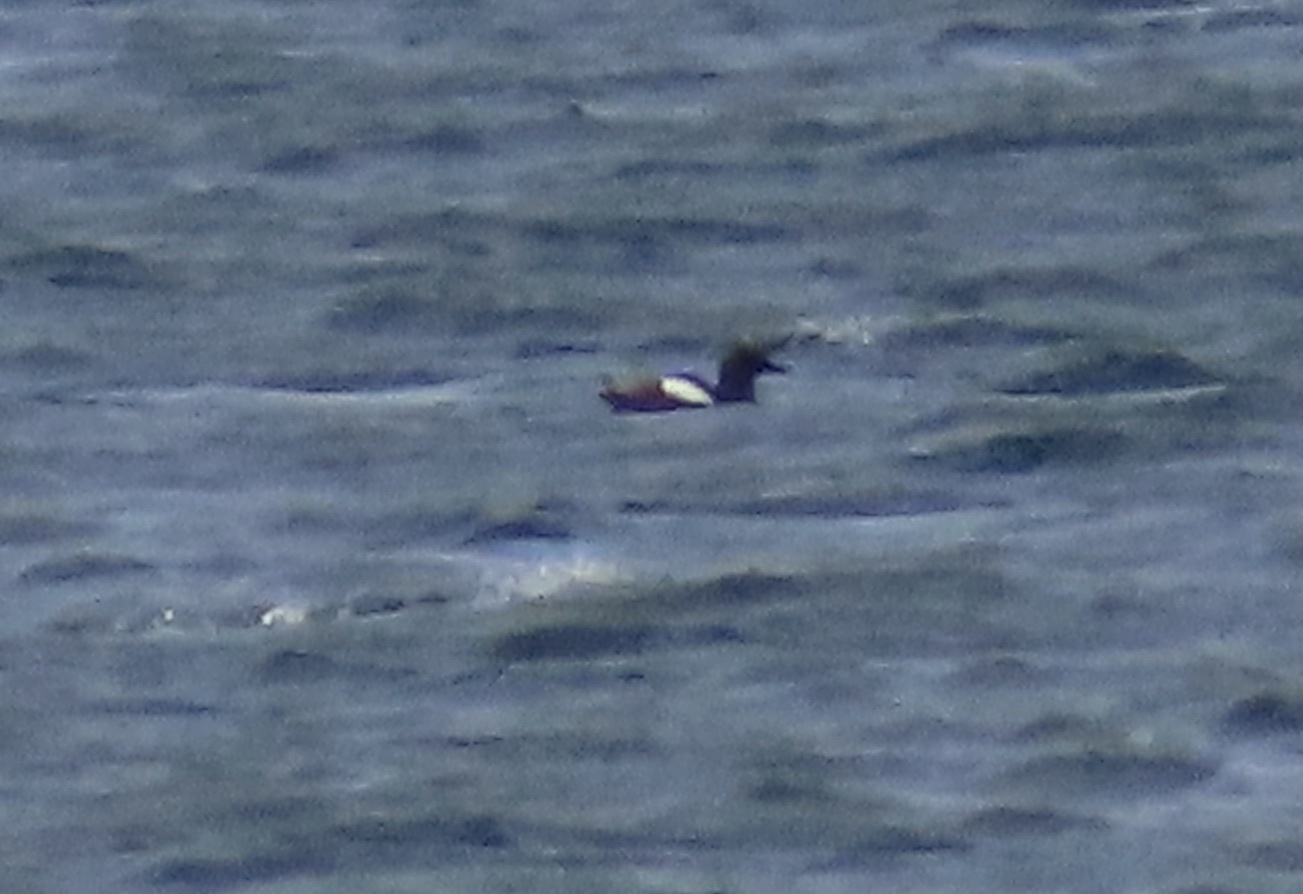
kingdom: Animalia
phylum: Chordata
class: Aves
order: Charadriiformes
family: Alcidae
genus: Cepphus
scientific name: Cepphus grylle
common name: Black guillemot
